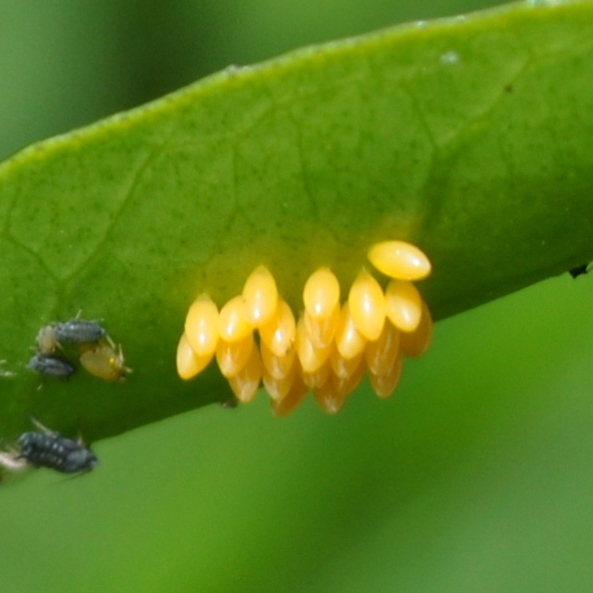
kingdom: Animalia
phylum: Arthropoda
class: Insecta
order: Coleoptera
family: Coccinellidae
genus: Harmonia
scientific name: Harmonia axyridis
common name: Harlequin ladybird
